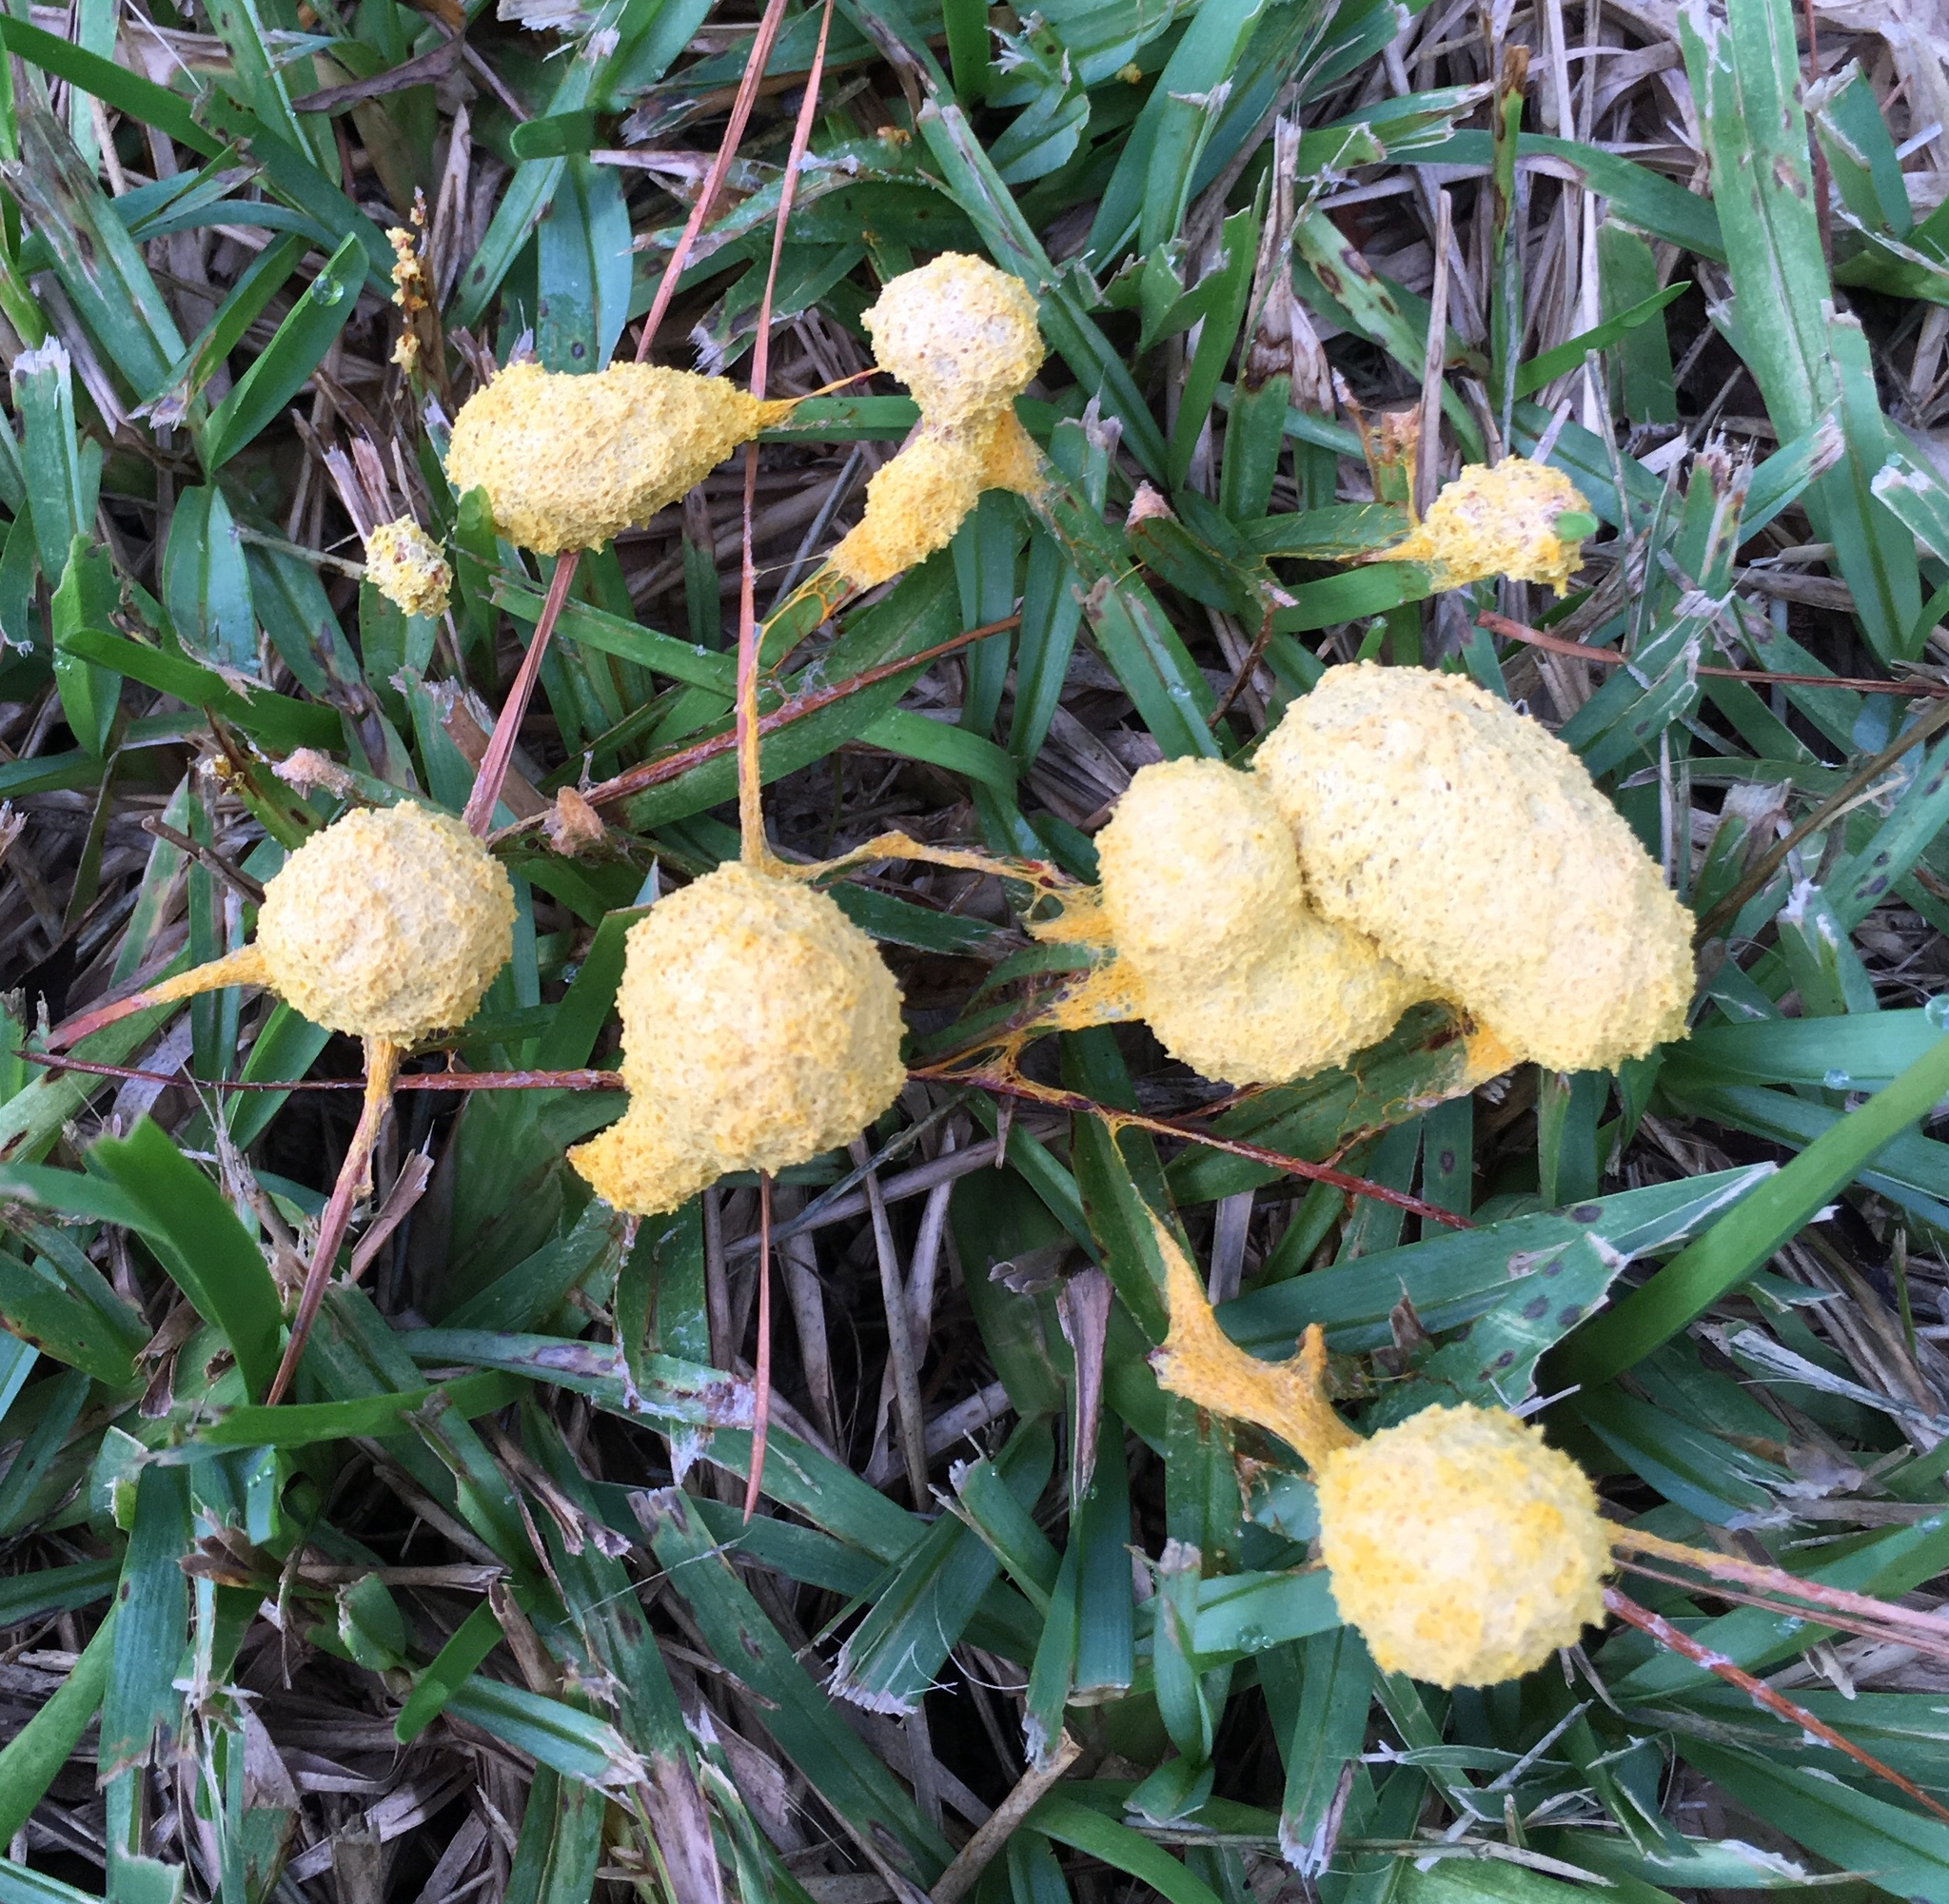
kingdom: Protozoa
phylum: Mycetozoa
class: Myxomycetes
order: Physarales
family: Physaraceae
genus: Fuligo
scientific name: Fuligo septica
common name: Dog vomit slime mold
